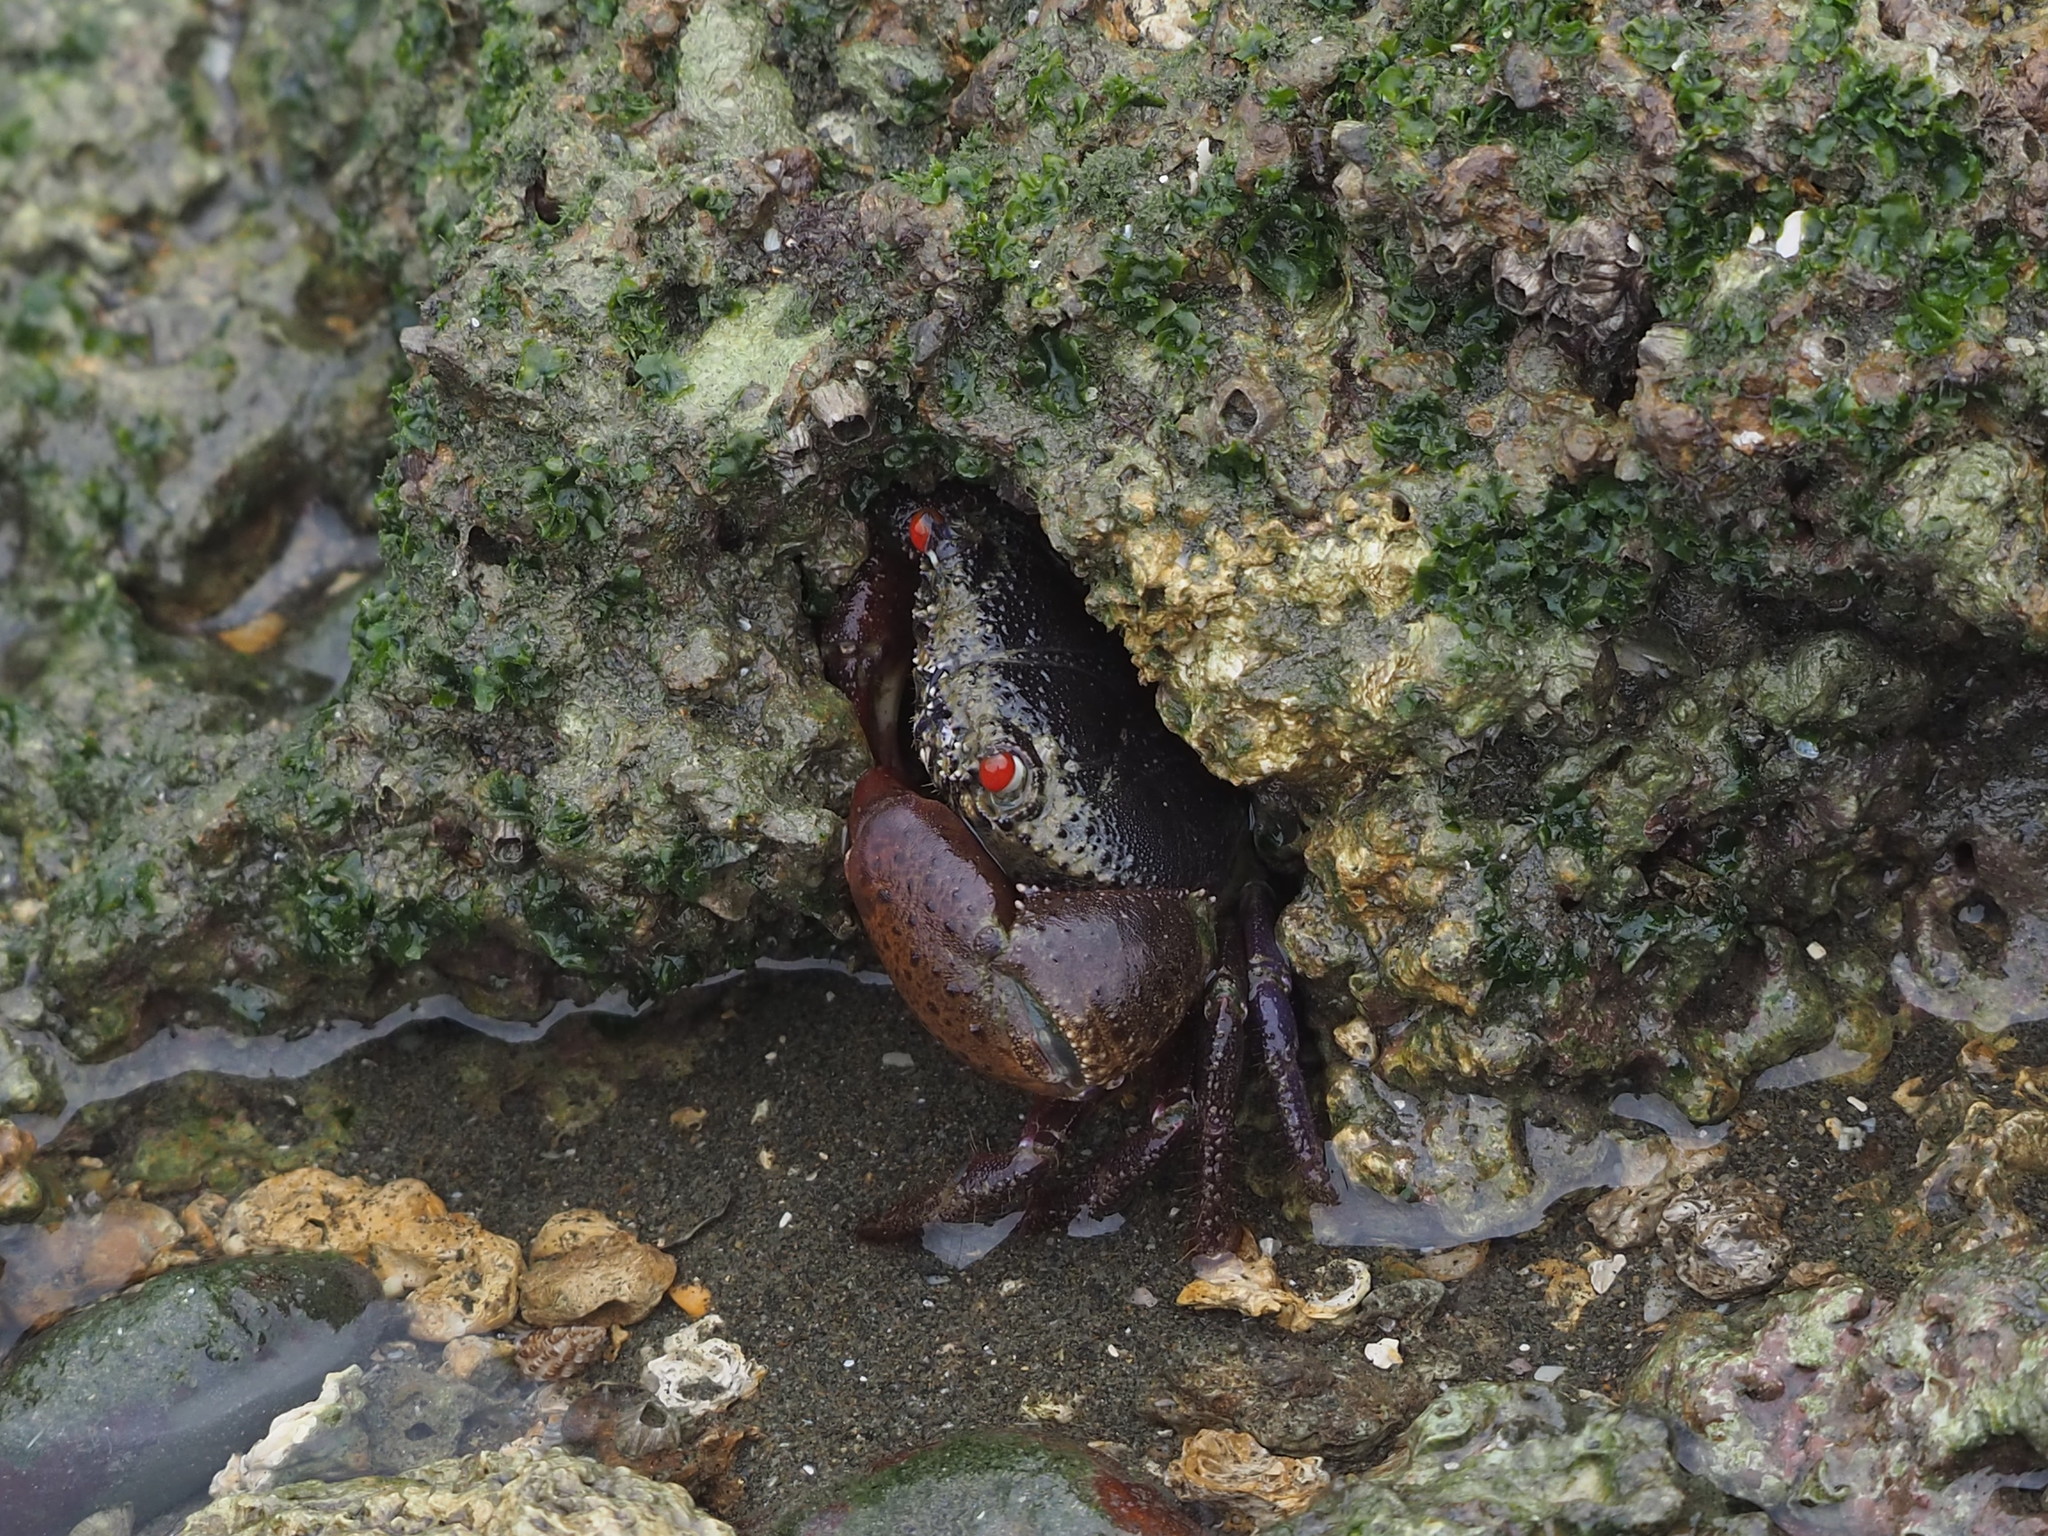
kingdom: Animalia
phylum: Arthropoda
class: Malacostraca
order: Decapoda
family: Eriphiidae
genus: Eriphia
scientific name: Eriphia ferox
